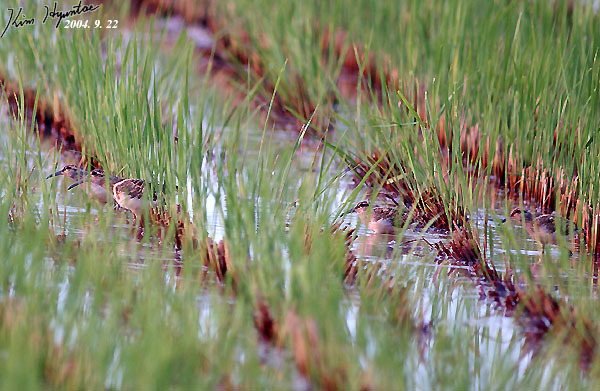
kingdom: Animalia
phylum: Chordata
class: Aves
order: Charadriiformes
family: Rostratulidae
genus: Rostratula
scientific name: Rostratula benghalensis
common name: Greater painted-snipe
